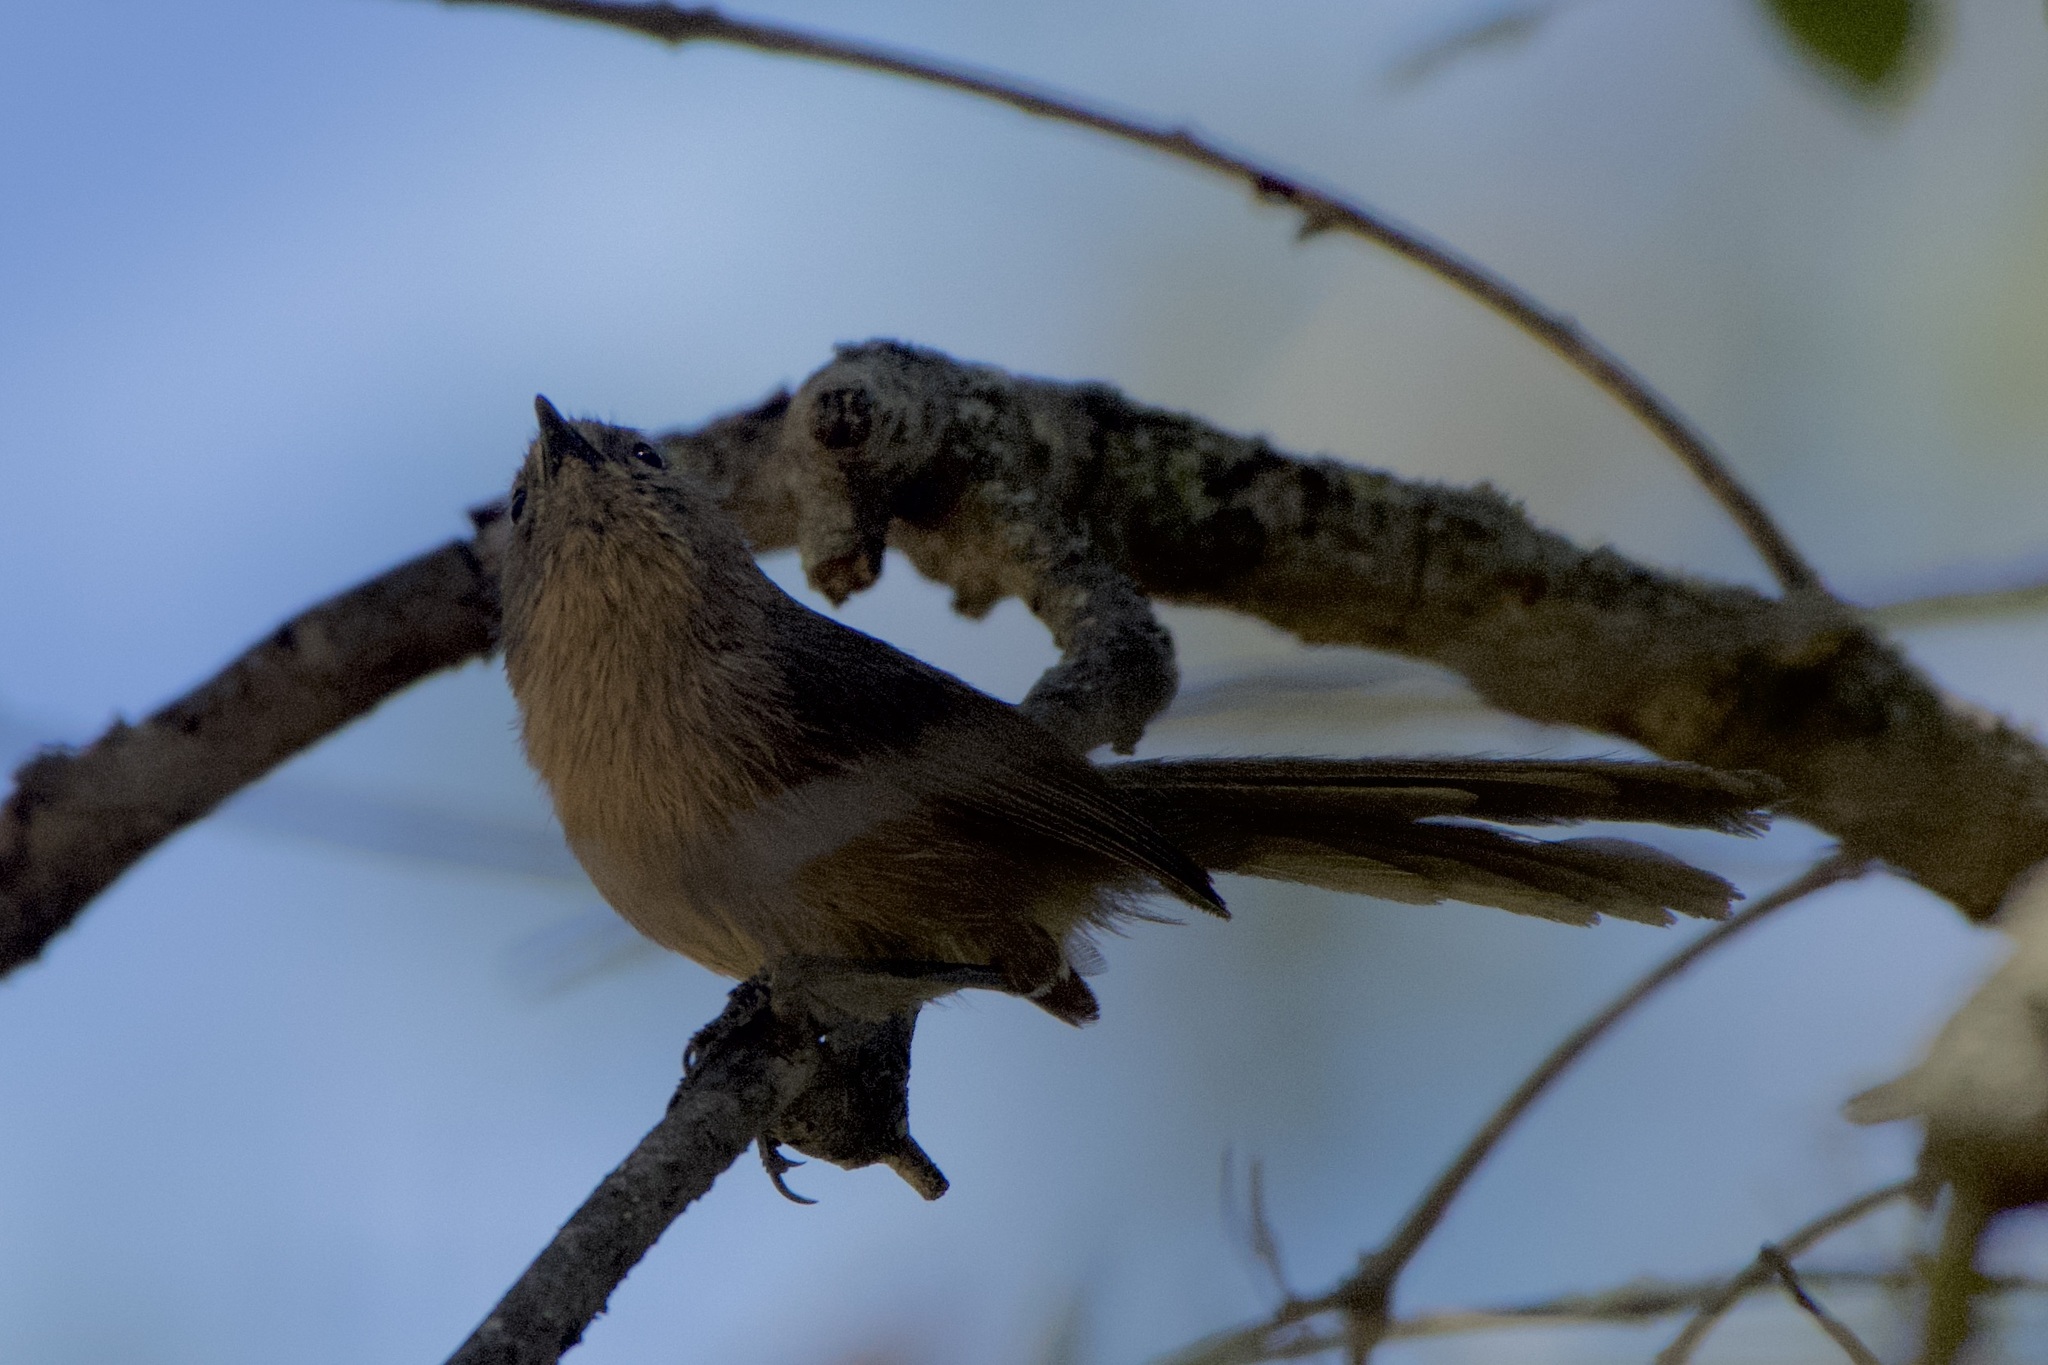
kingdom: Animalia
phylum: Chordata
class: Aves
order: Passeriformes
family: Sylviidae
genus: Chamaea
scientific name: Chamaea fasciata
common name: Wrentit
